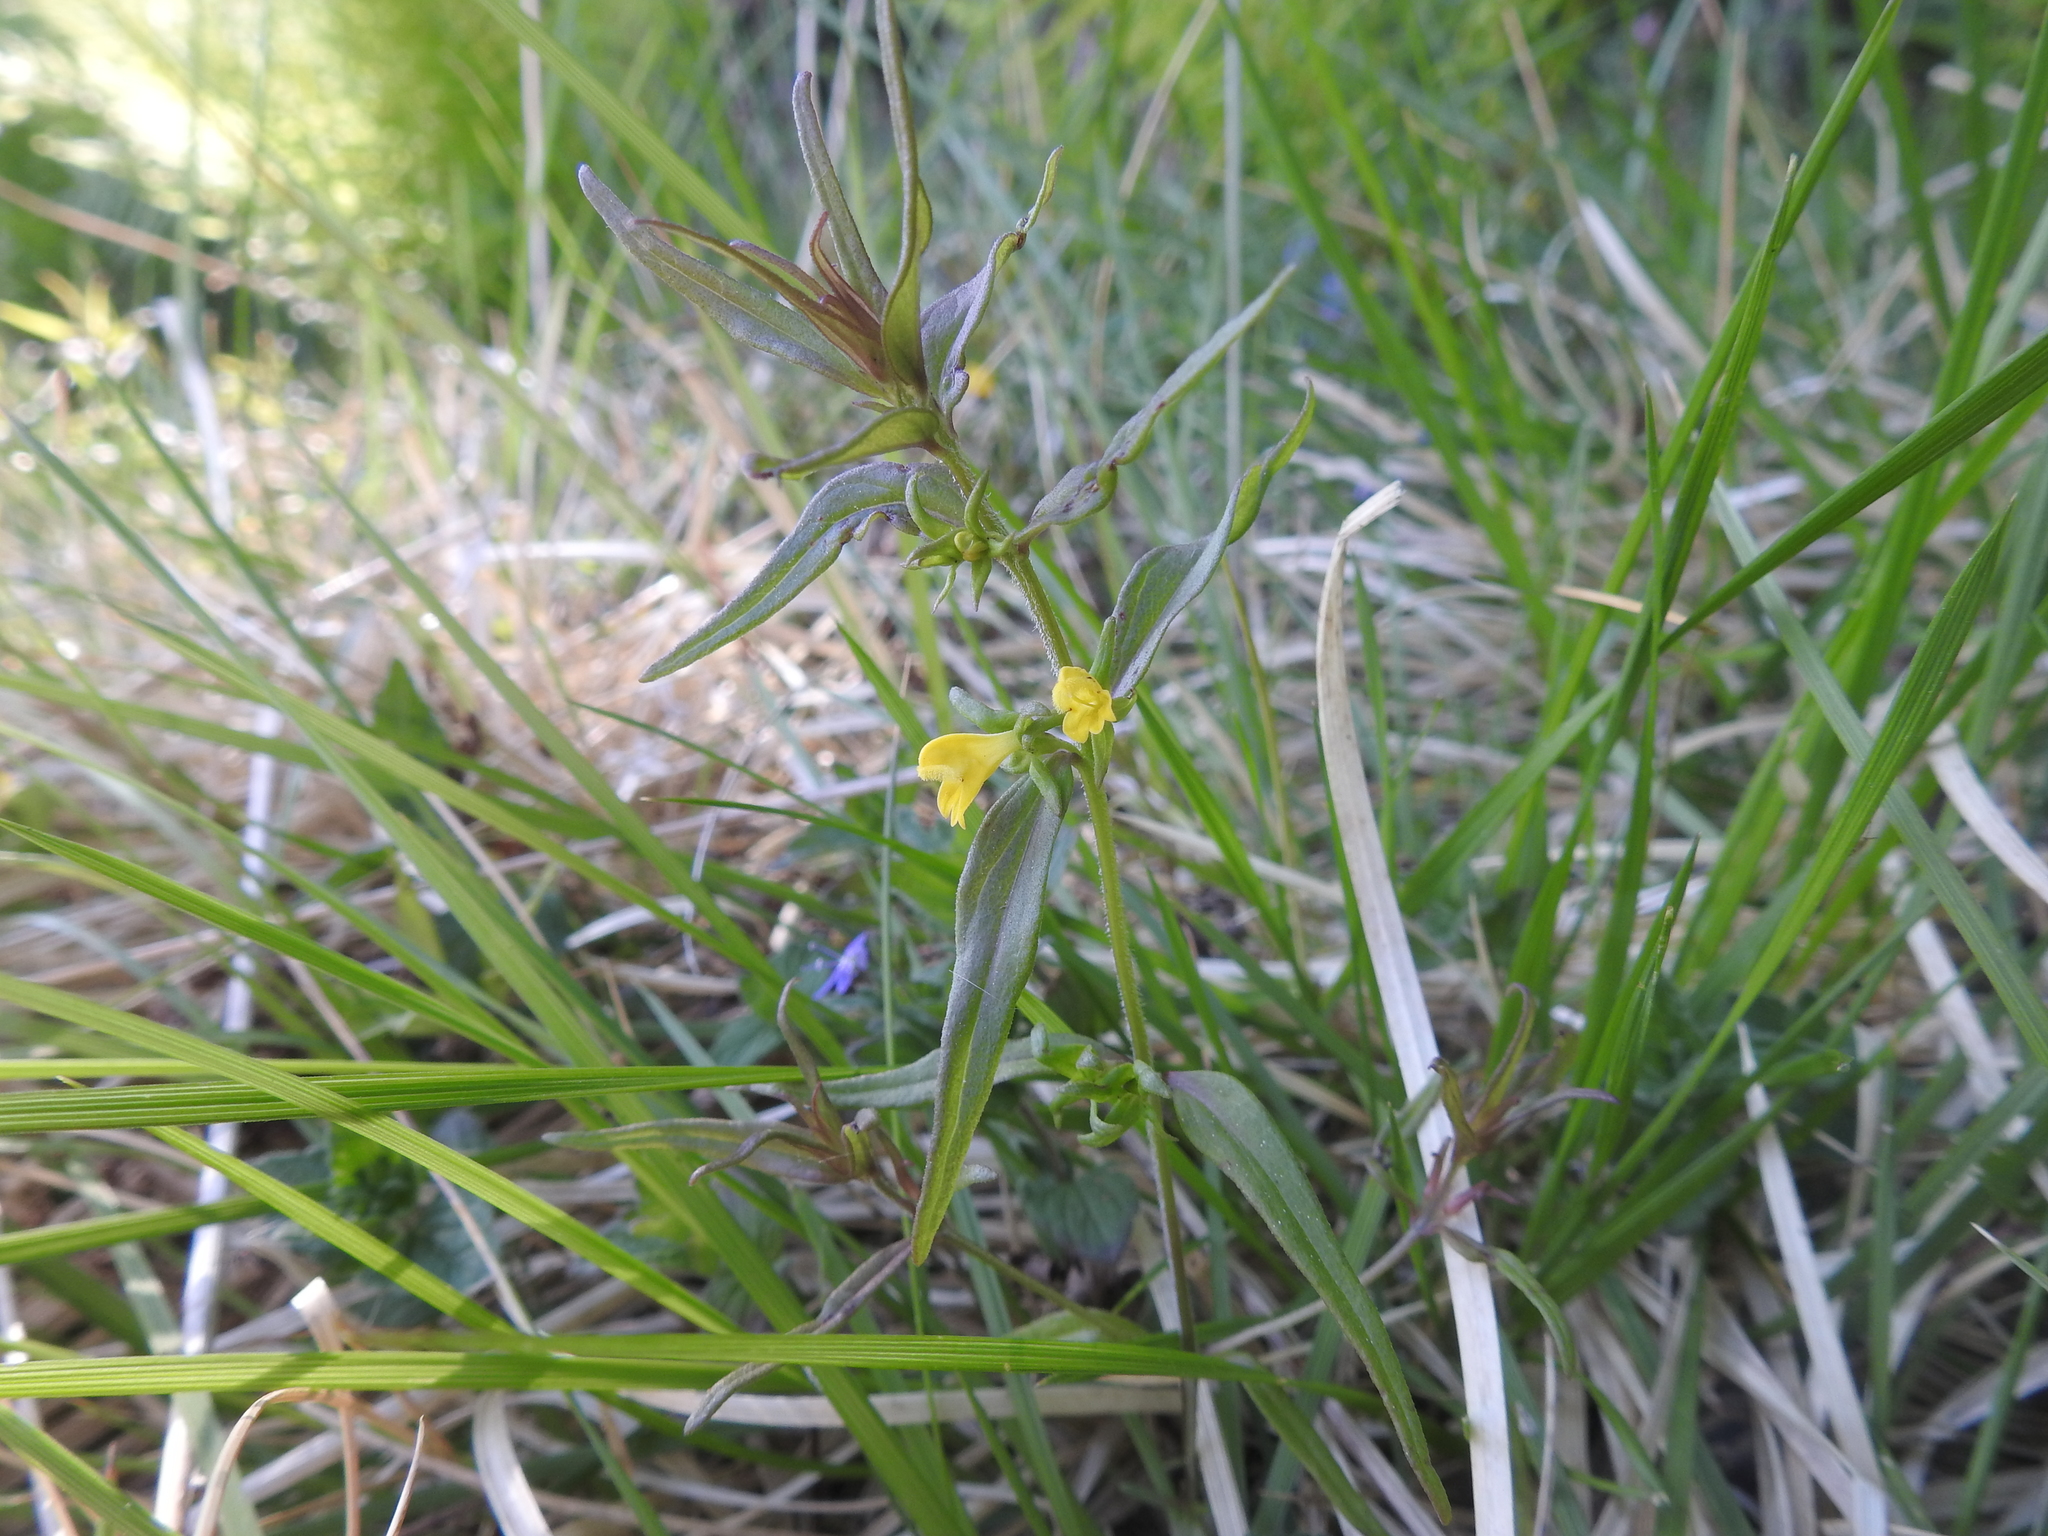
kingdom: Plantae
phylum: Tracheophyta
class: Magnoliopsida
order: Lamiales
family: Orobanchaceae
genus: Melampyrum
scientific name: Melampyrum sylvaticum
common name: Small cow-wheat
